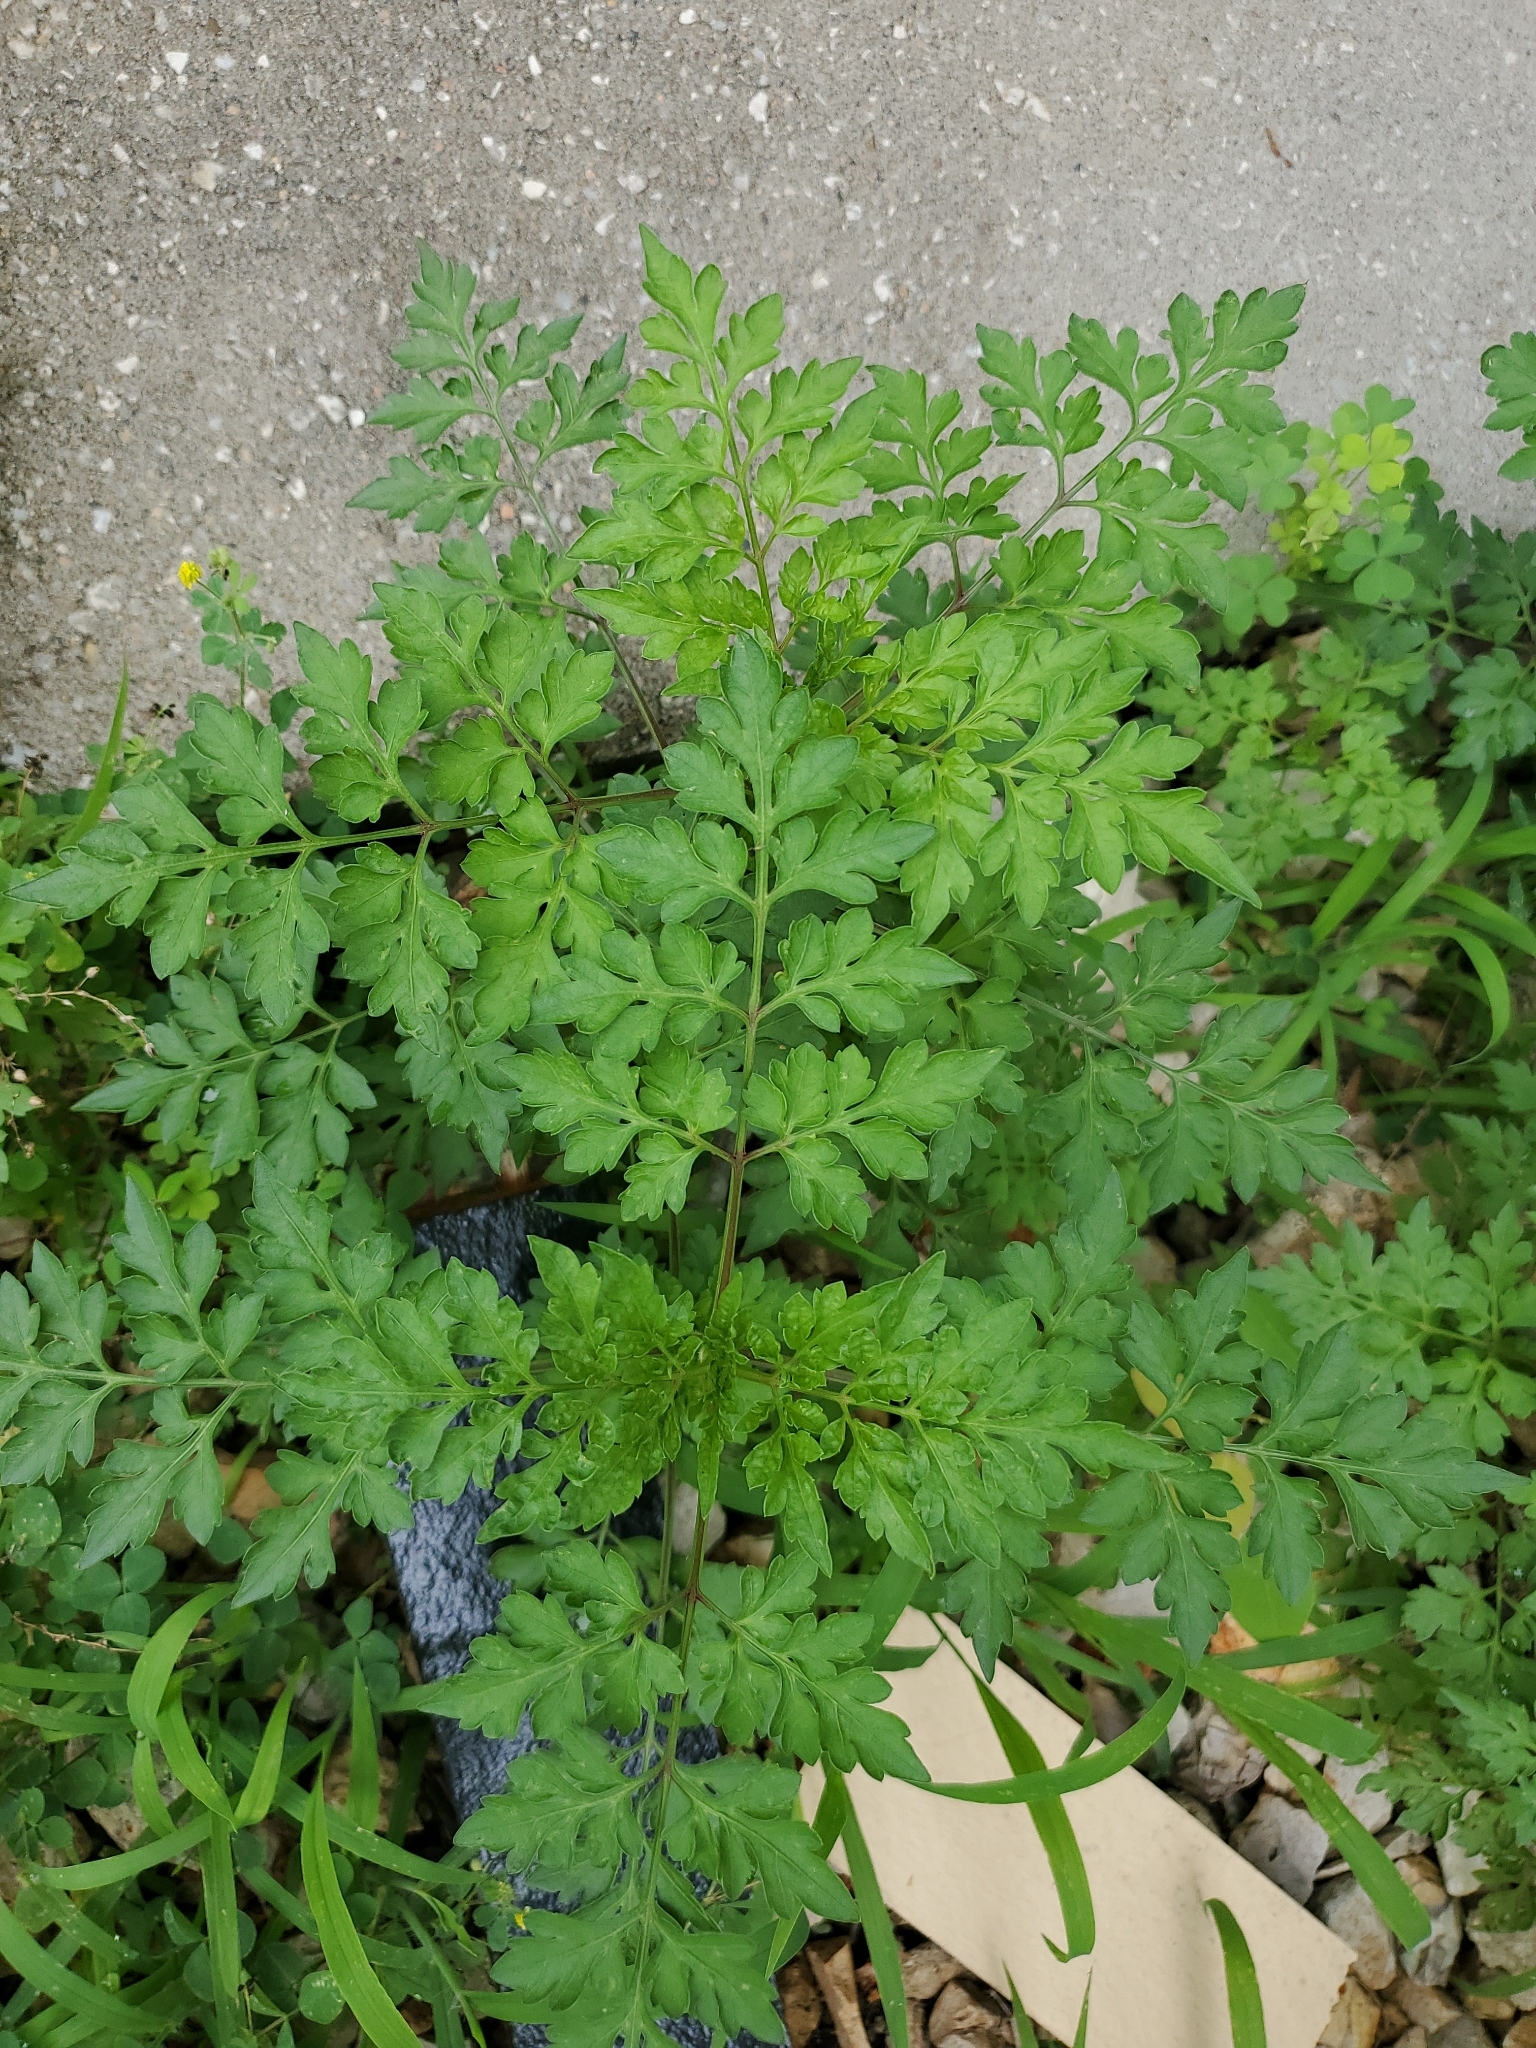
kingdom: Plantae
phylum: Tracheophyta
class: Magnoliopsida
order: Asterales
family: Asteraceae
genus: Bidens
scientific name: Bidens bipinnata
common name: Spanish-needles
